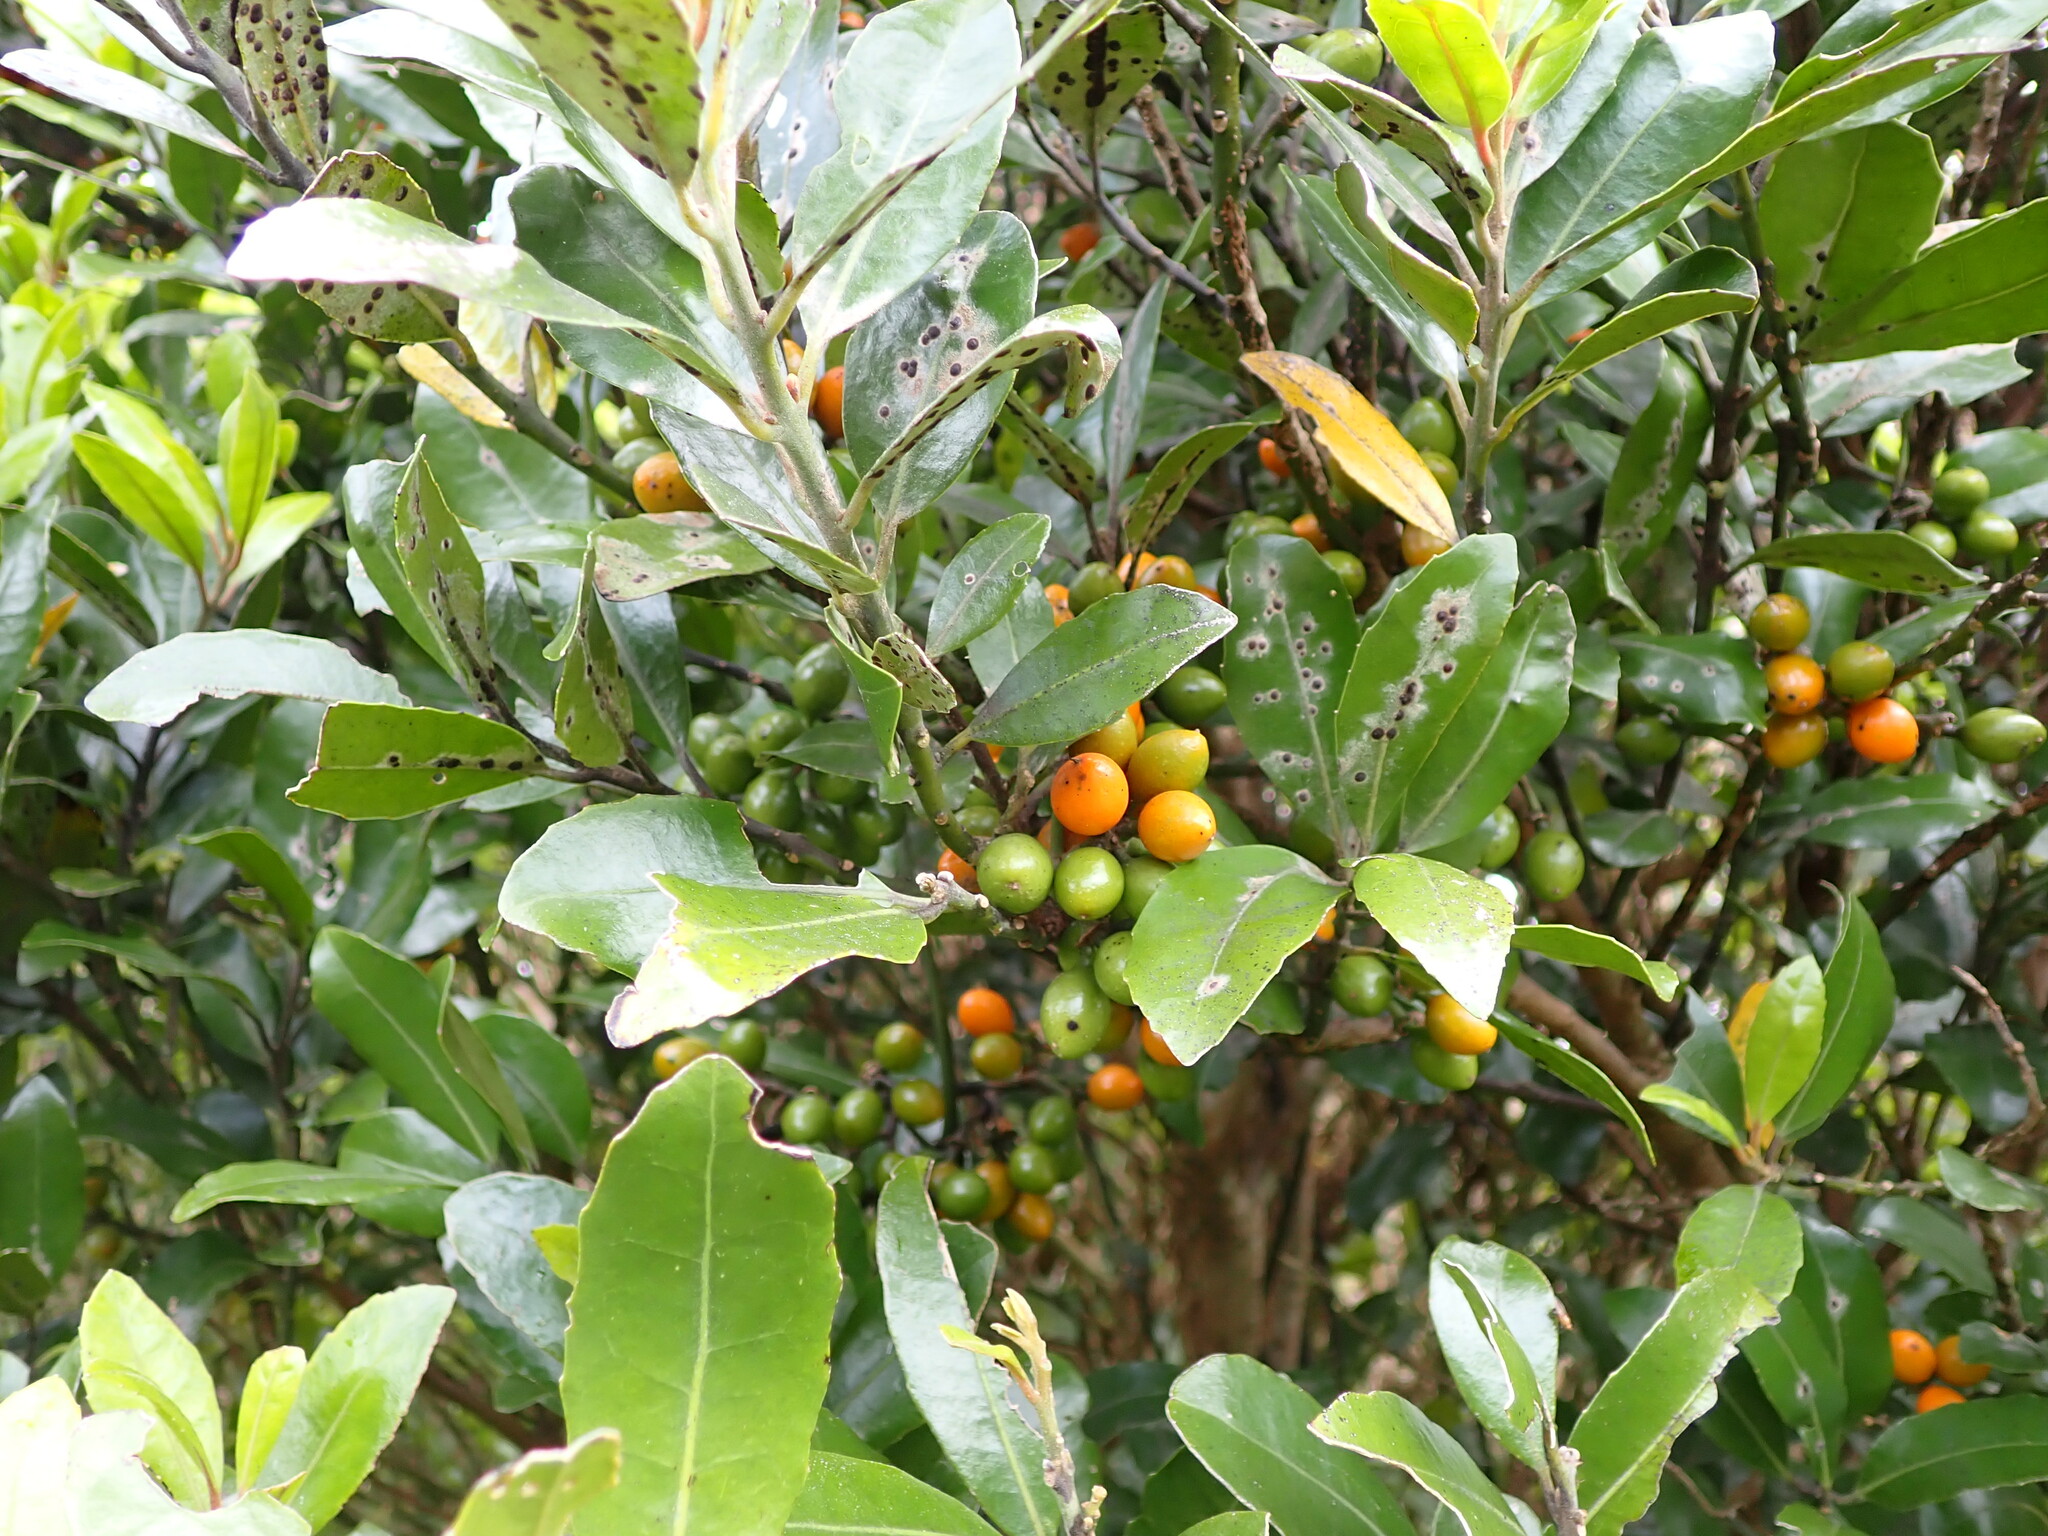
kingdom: Plantae
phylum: Tracheophyta
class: Magnoliopsida
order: Laurales
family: Monimiaceae
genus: Hedycarya
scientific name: Hedycarya arborea
